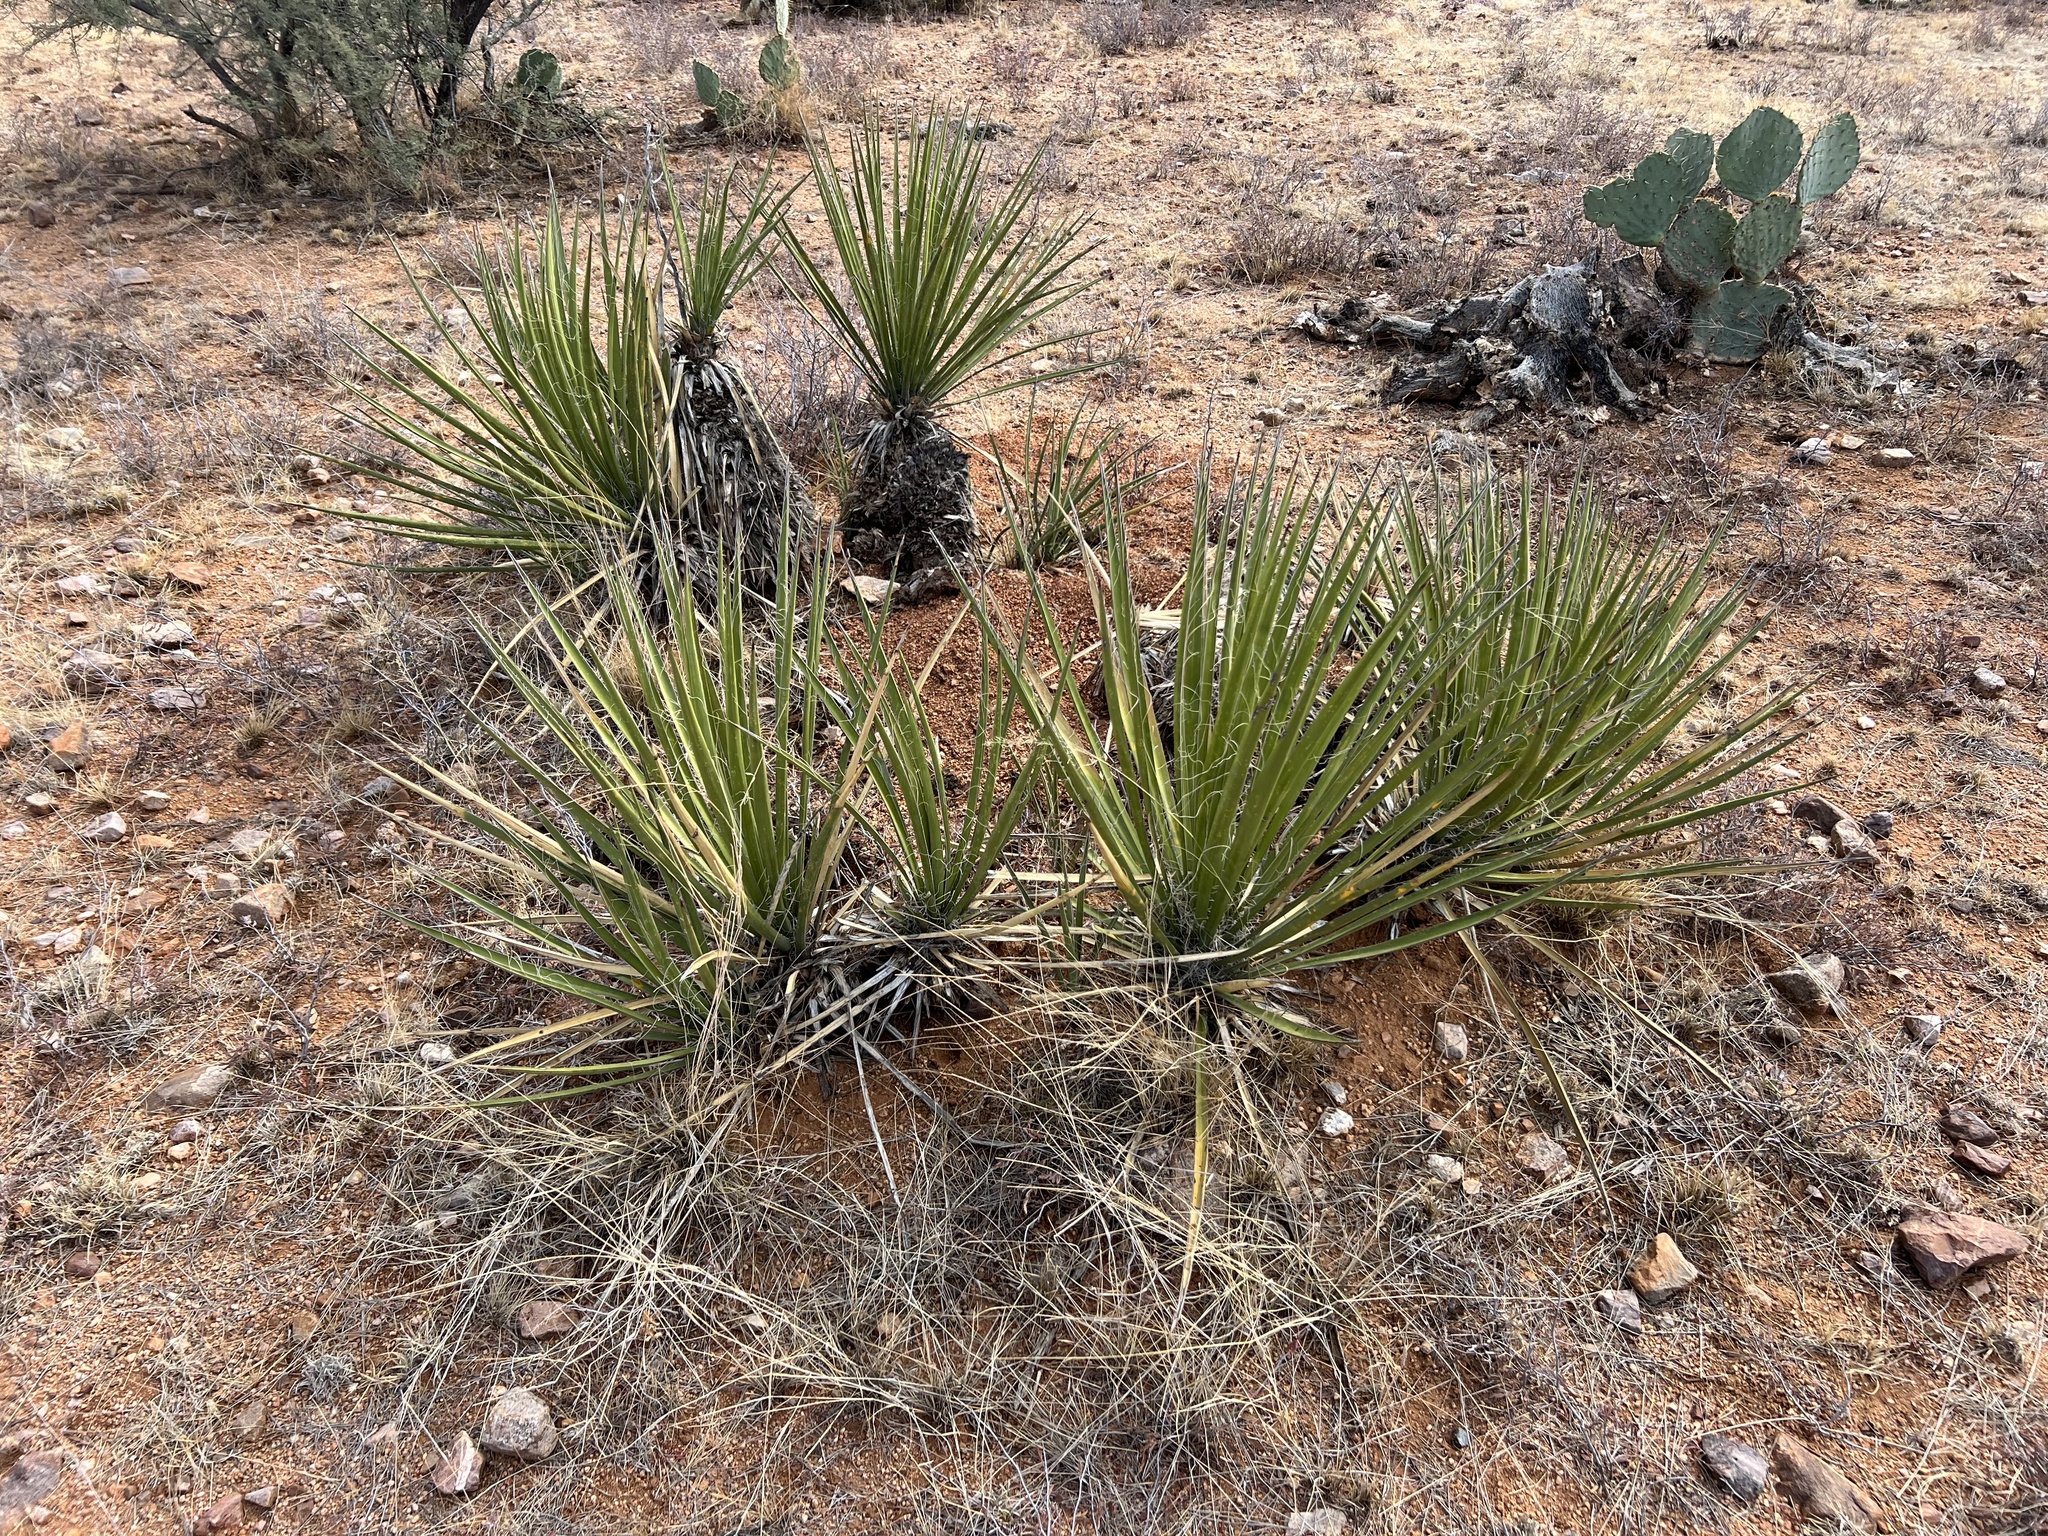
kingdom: Plantae
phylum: Tracheophyta
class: Liliopsida
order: Asparagales
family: Asparagaceae
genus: Yucca
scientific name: Yucca baccata
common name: Banana yucca
